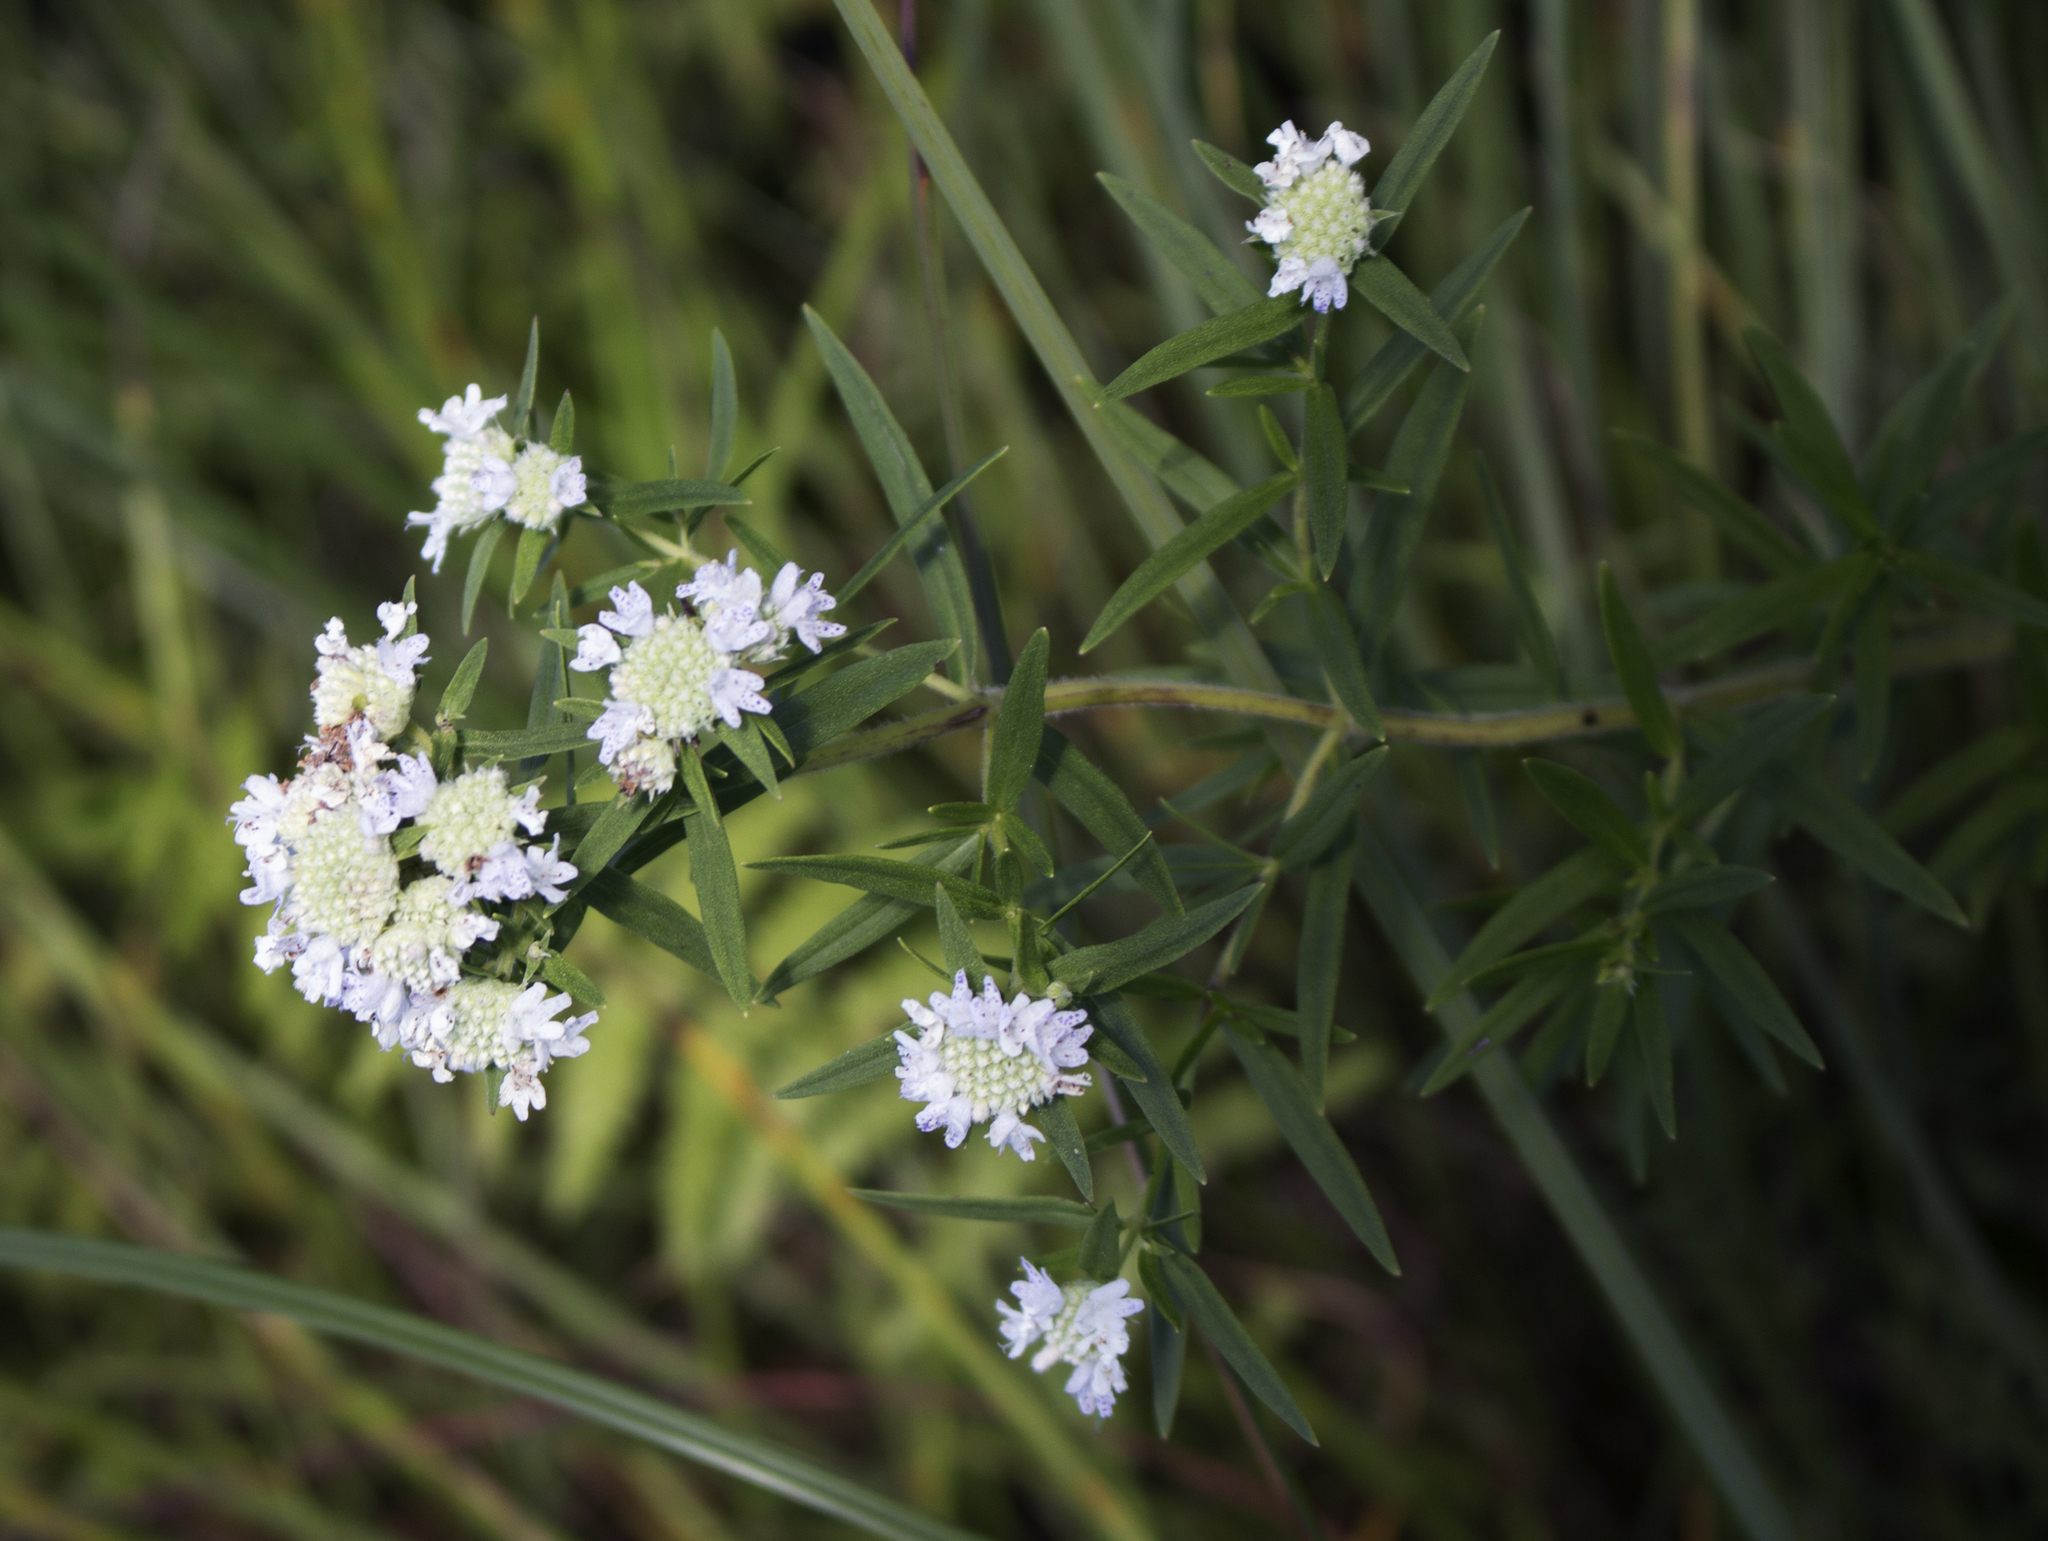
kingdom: Plantae
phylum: Tracheophyta
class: Magnoliopsida
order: Lamiales
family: Lamiaceae
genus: Pycnanthemum
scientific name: Pycnanthemum virginianum
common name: Virginia mountain-mint
